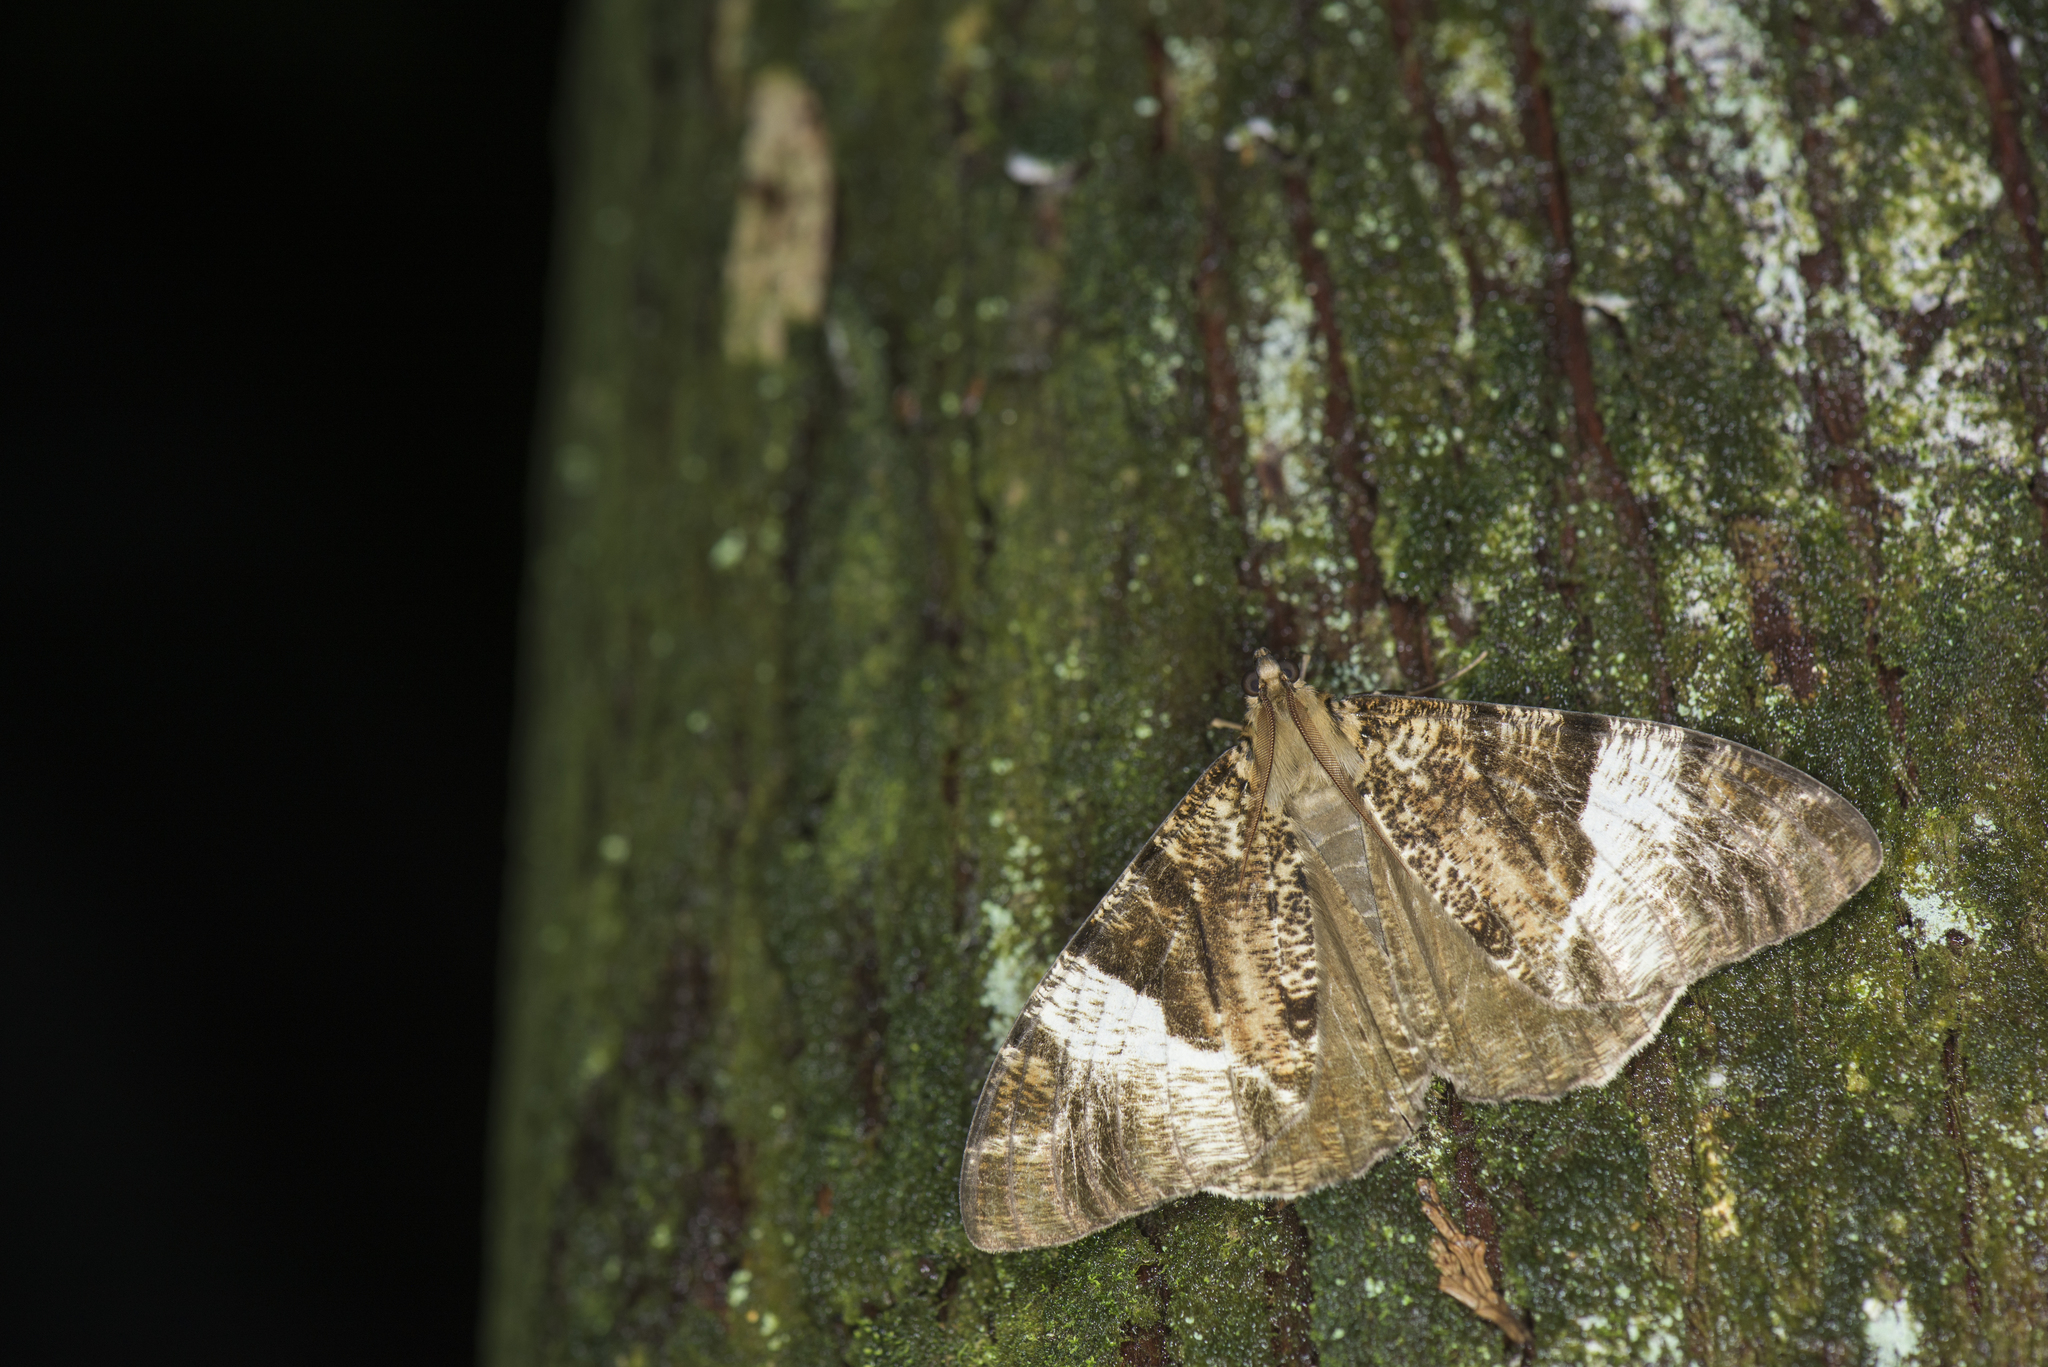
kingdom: Animalia
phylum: Arthropoda
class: Insecta
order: Lepidoptera
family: Geometridae
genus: Xandrames
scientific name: Xandrames dholaria
